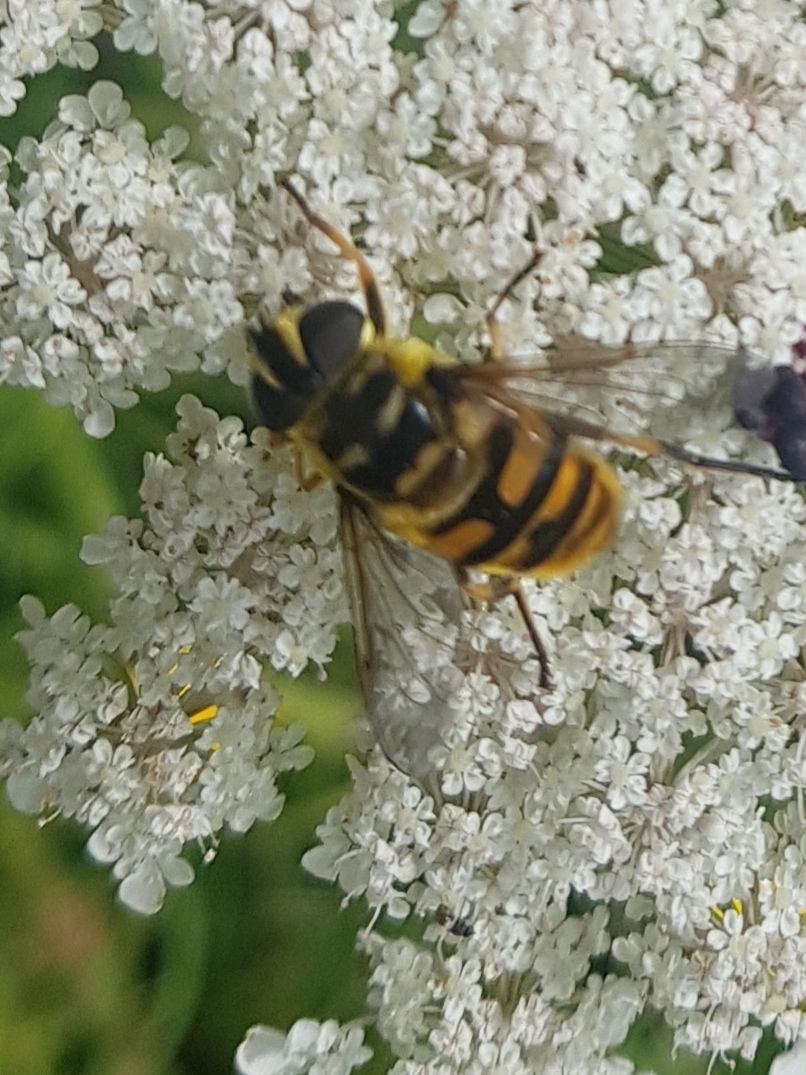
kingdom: Animalia
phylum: Arthropoda
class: Insecta
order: Diptera
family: Syrphidae
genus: Myathropa
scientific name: Myathropa florea
